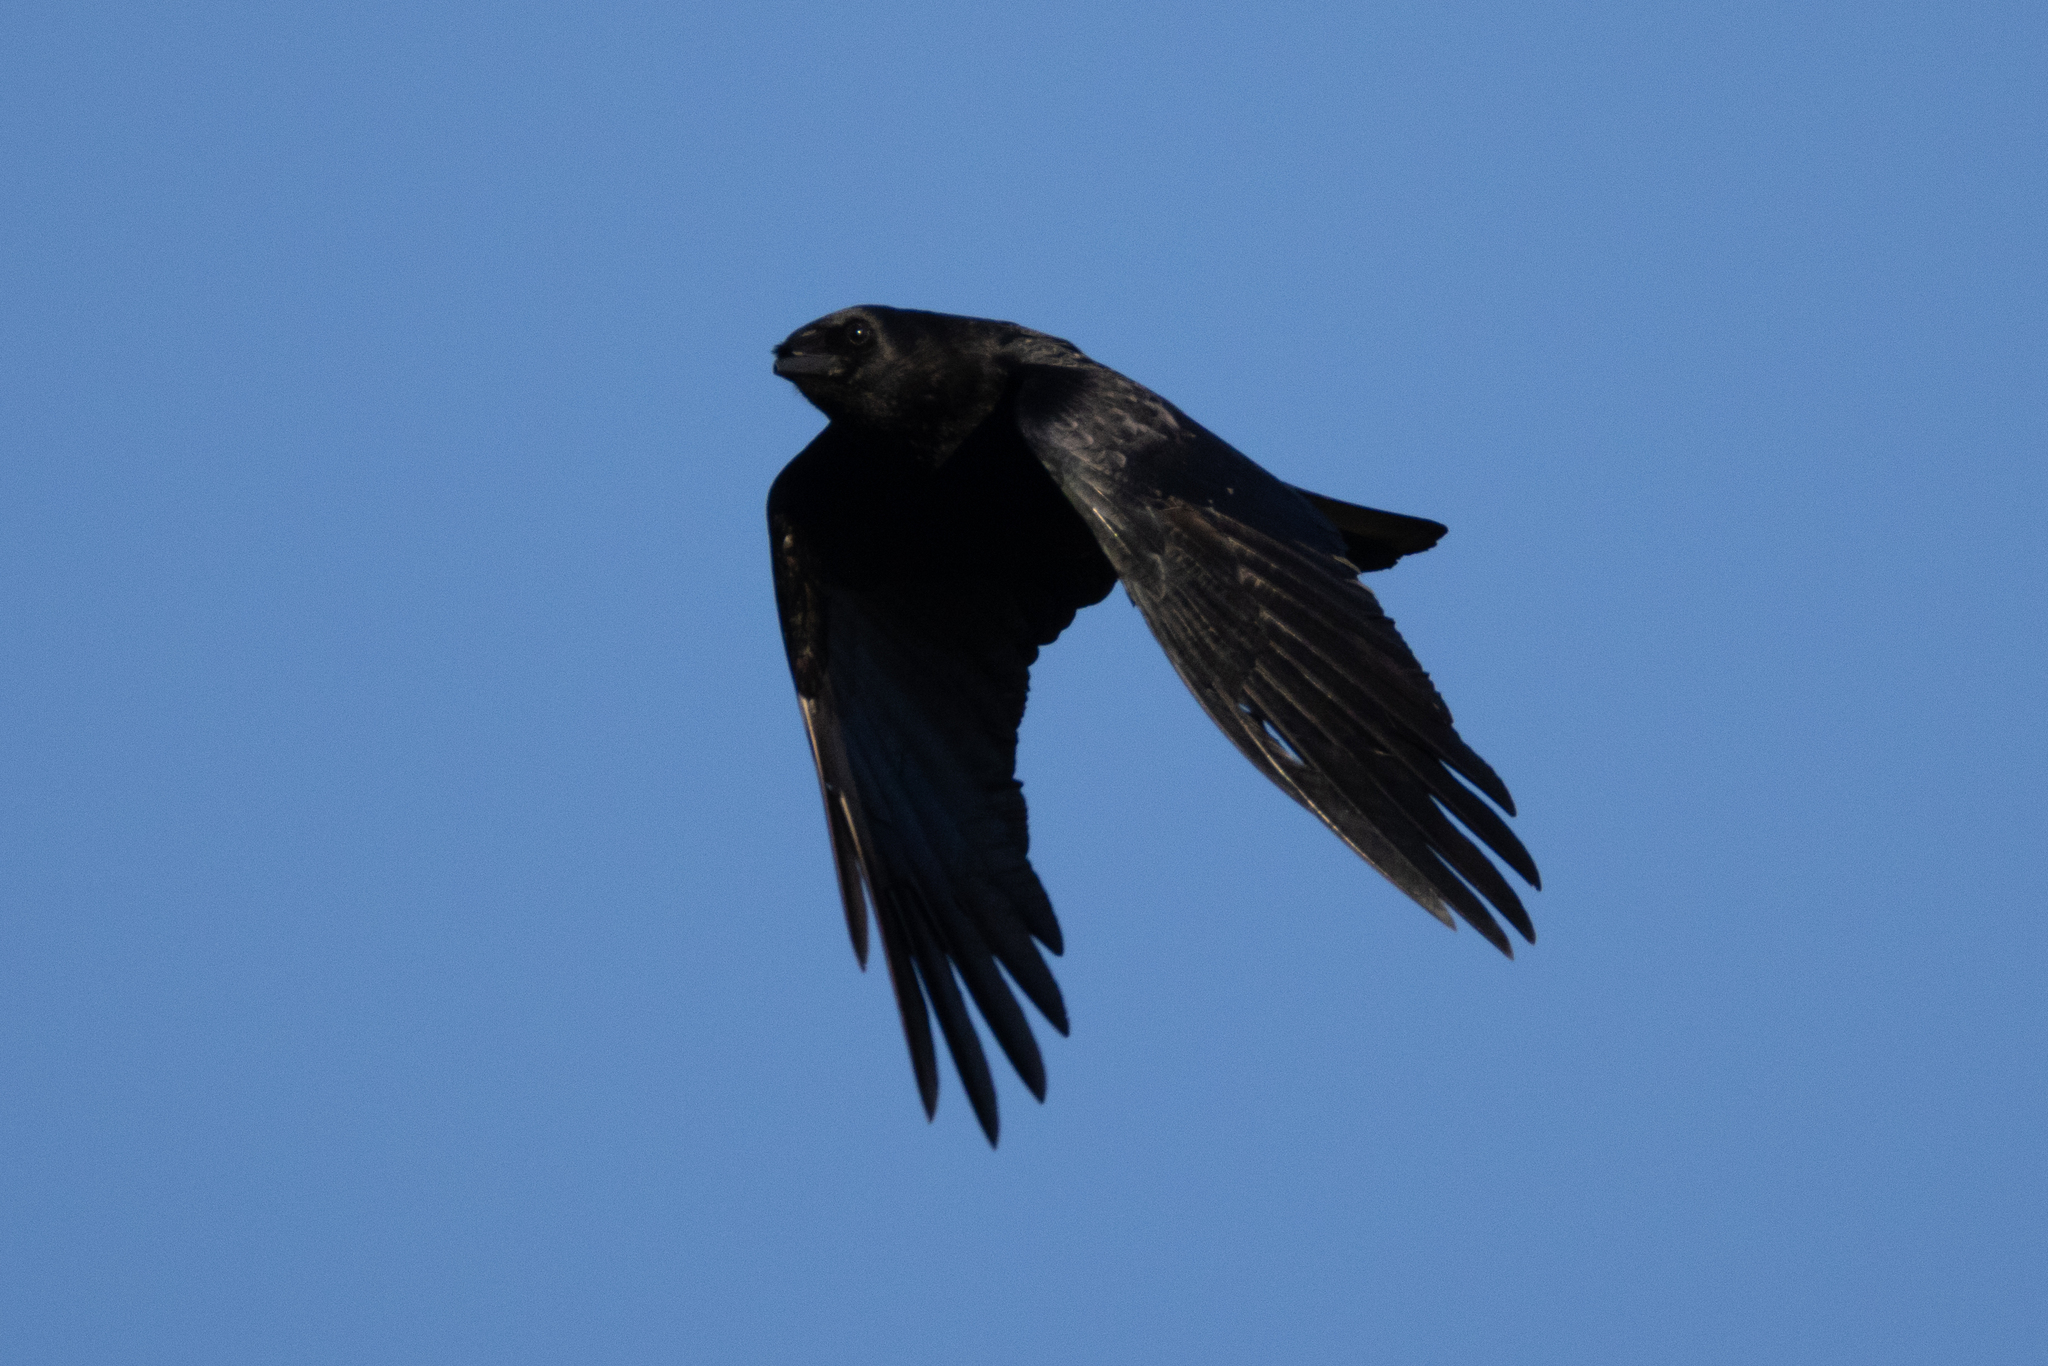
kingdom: Animalia
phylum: Chordata
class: Aves
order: Passeriformes
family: Corvidae
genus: Corvus
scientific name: Corvus corone
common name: Carrion crow
